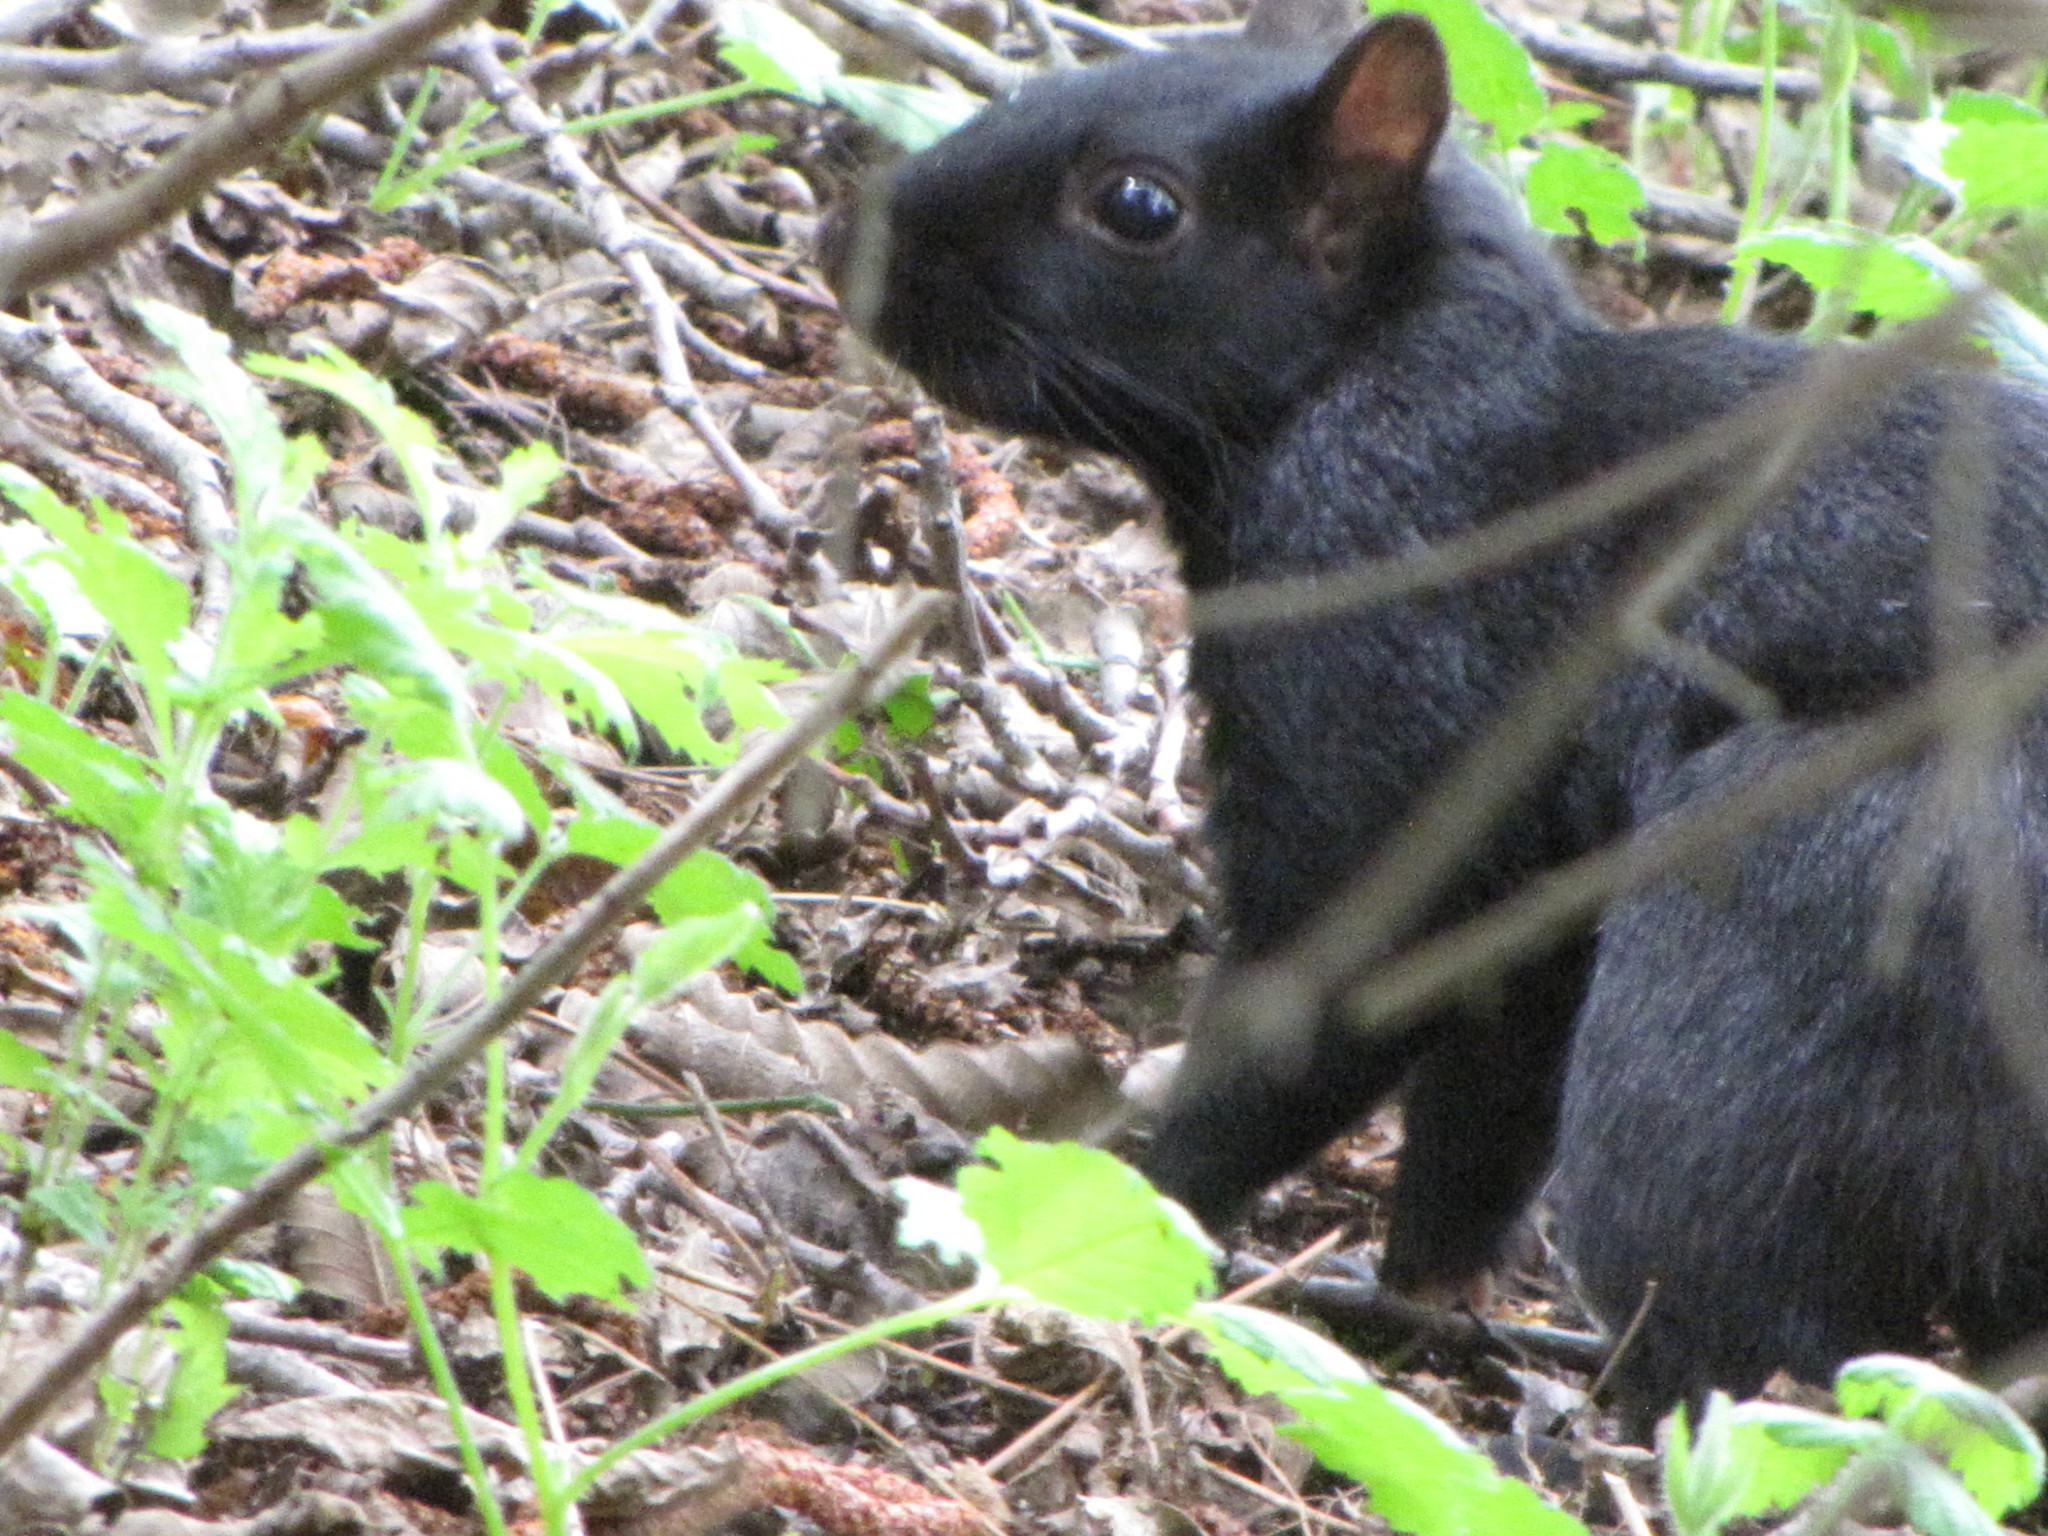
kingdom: Animalia
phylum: Chordata
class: Mammalia
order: Rodentia
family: Sciuridae
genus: Sciurus
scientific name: Sciurus carolinensis
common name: Eastern gray squirrel
